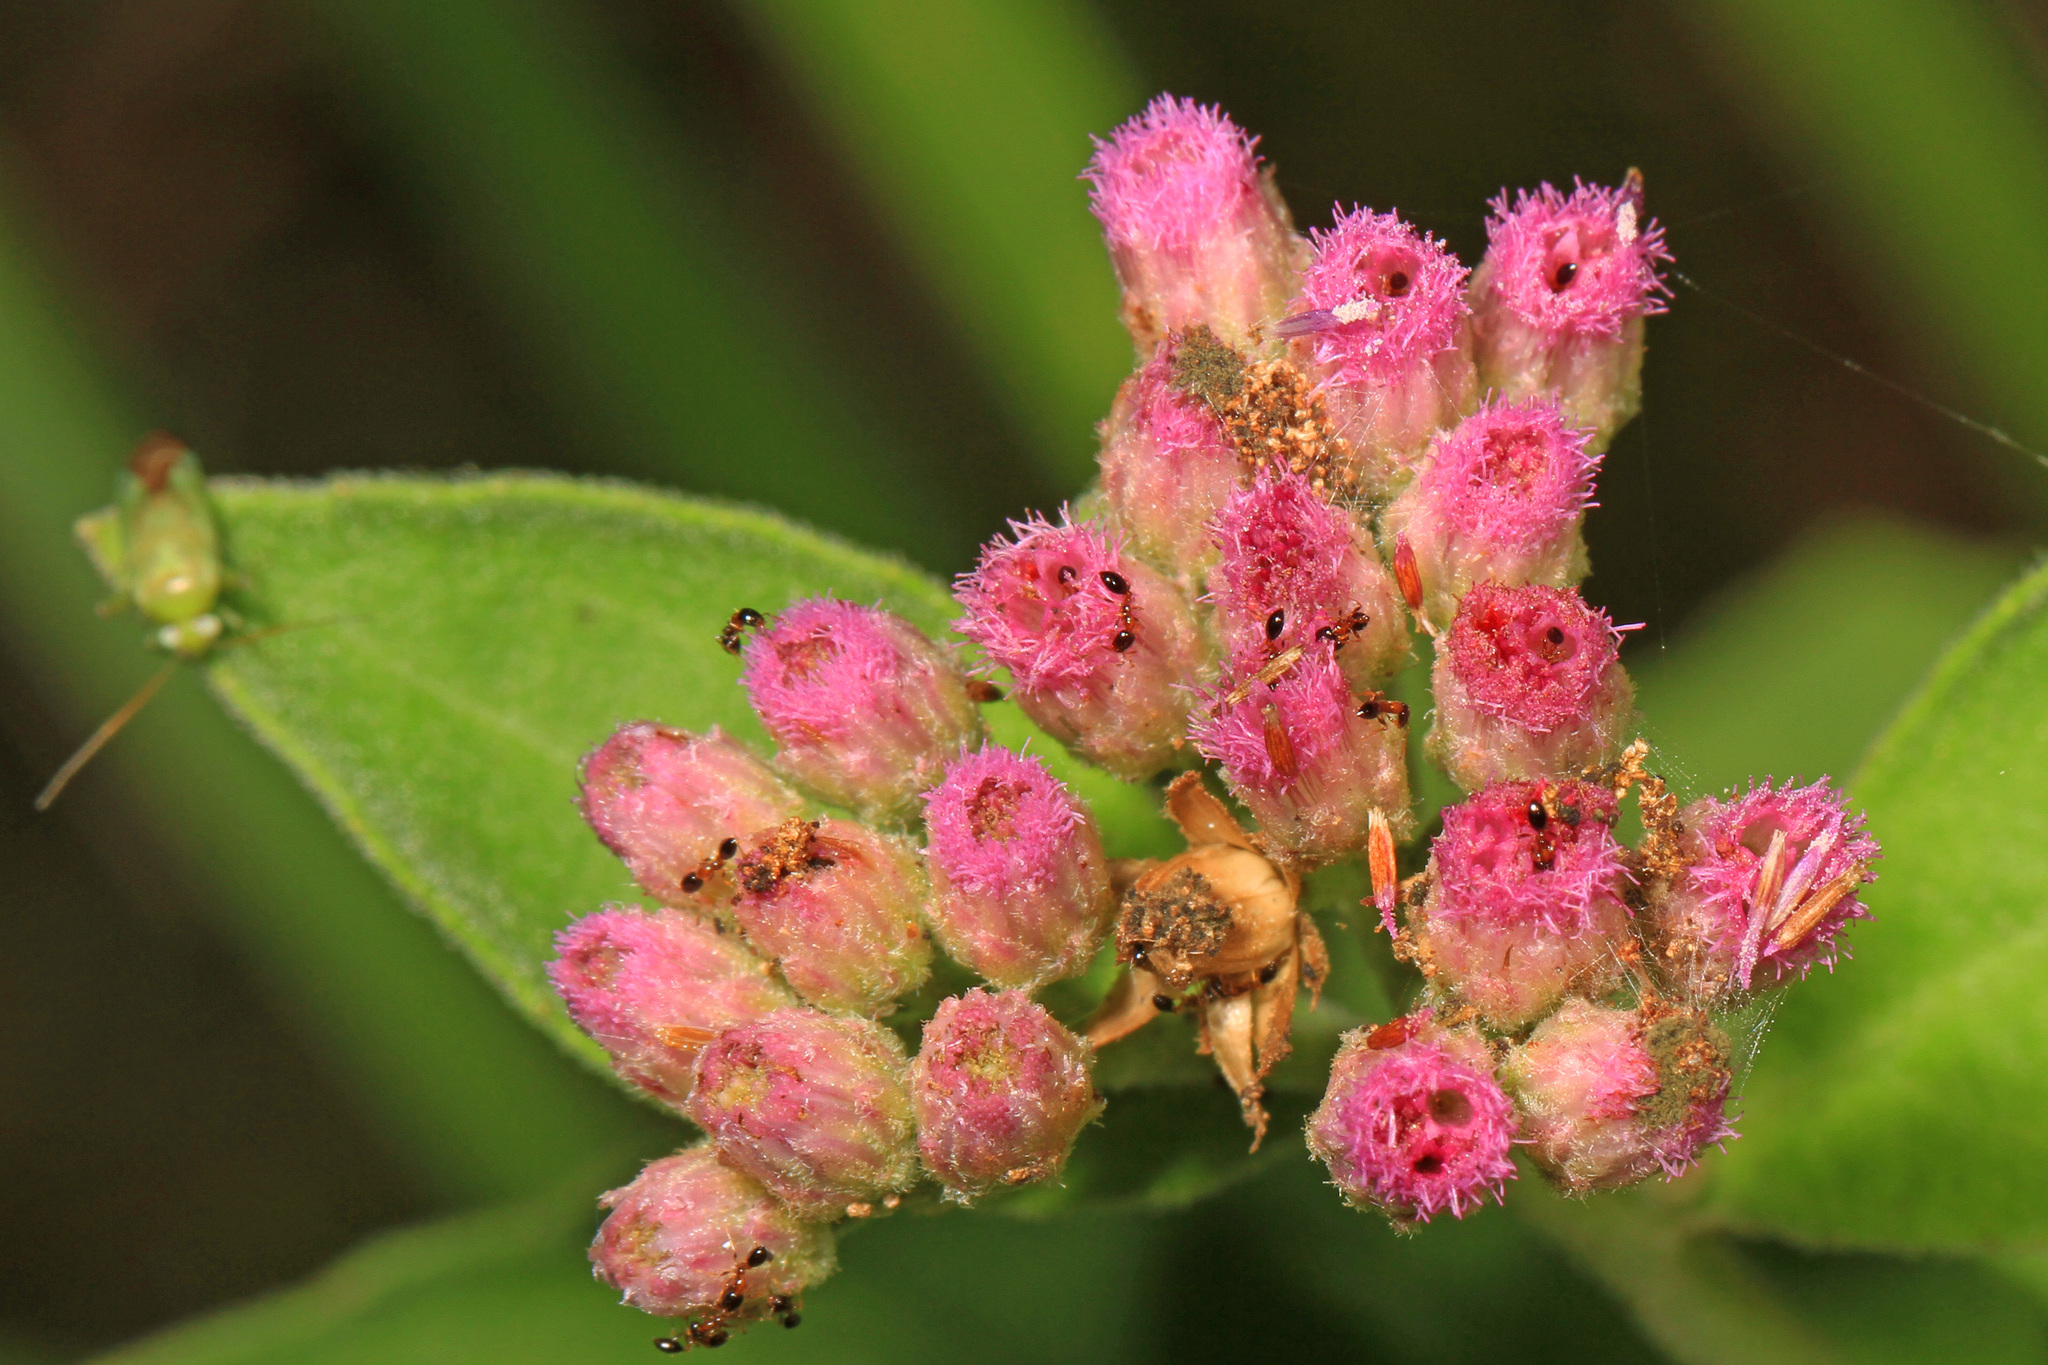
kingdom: Plantae
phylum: Tracheophyta
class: Magnoliopsida
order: Asterales
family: Asteraceae
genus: Pluchea
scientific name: Pluchea odorata
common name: Saltmarsh fleabane
